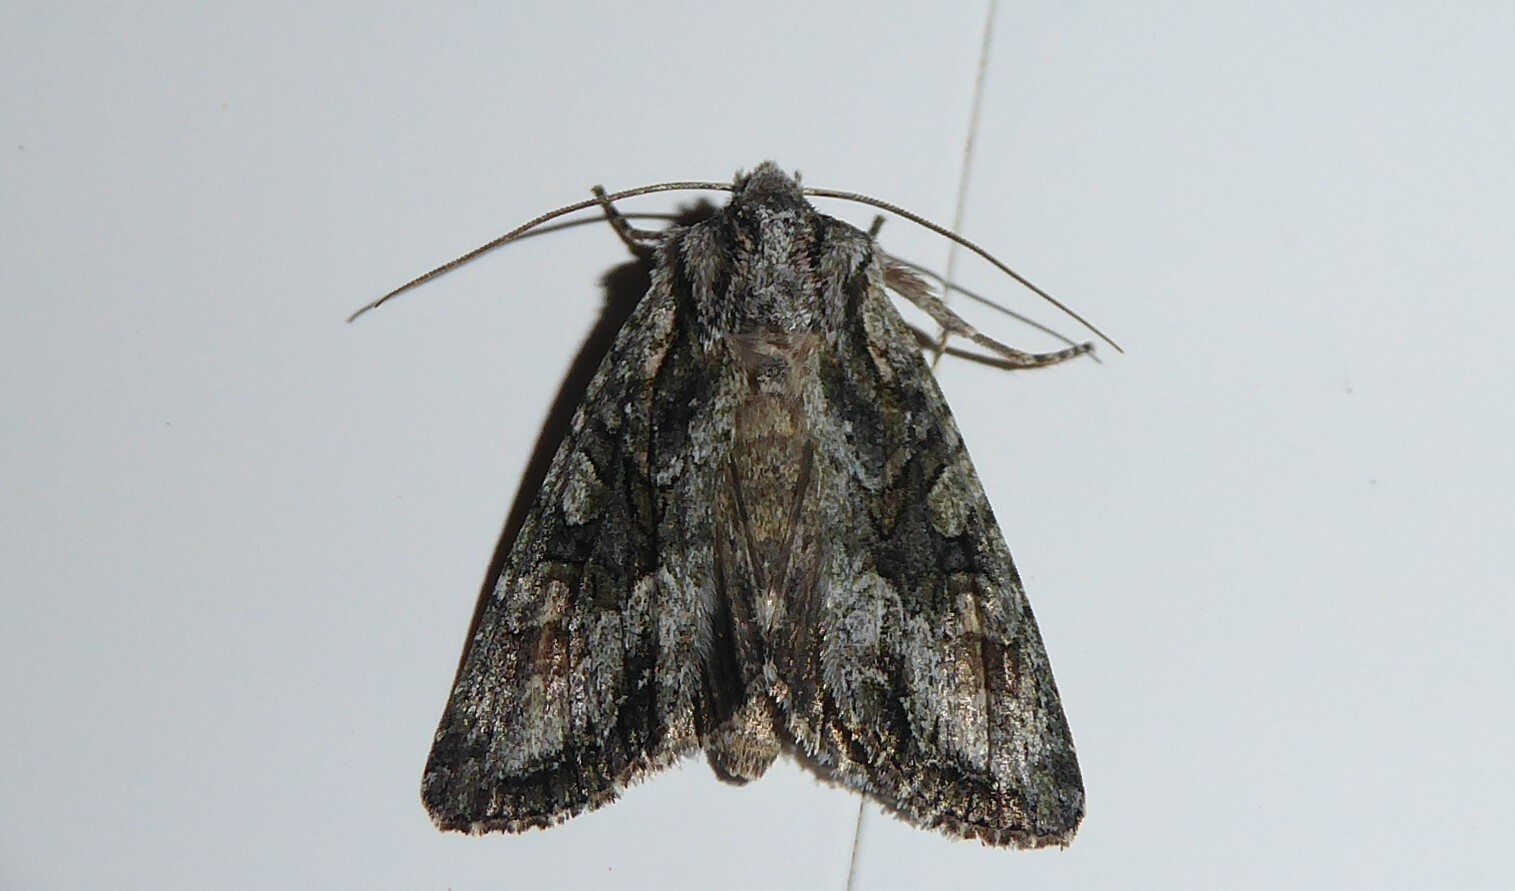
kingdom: Animalia
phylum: Arthropoda
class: Insecta
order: Lepidoptera
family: Noctuidae
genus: Ichneutica
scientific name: Ichneutica mutans
